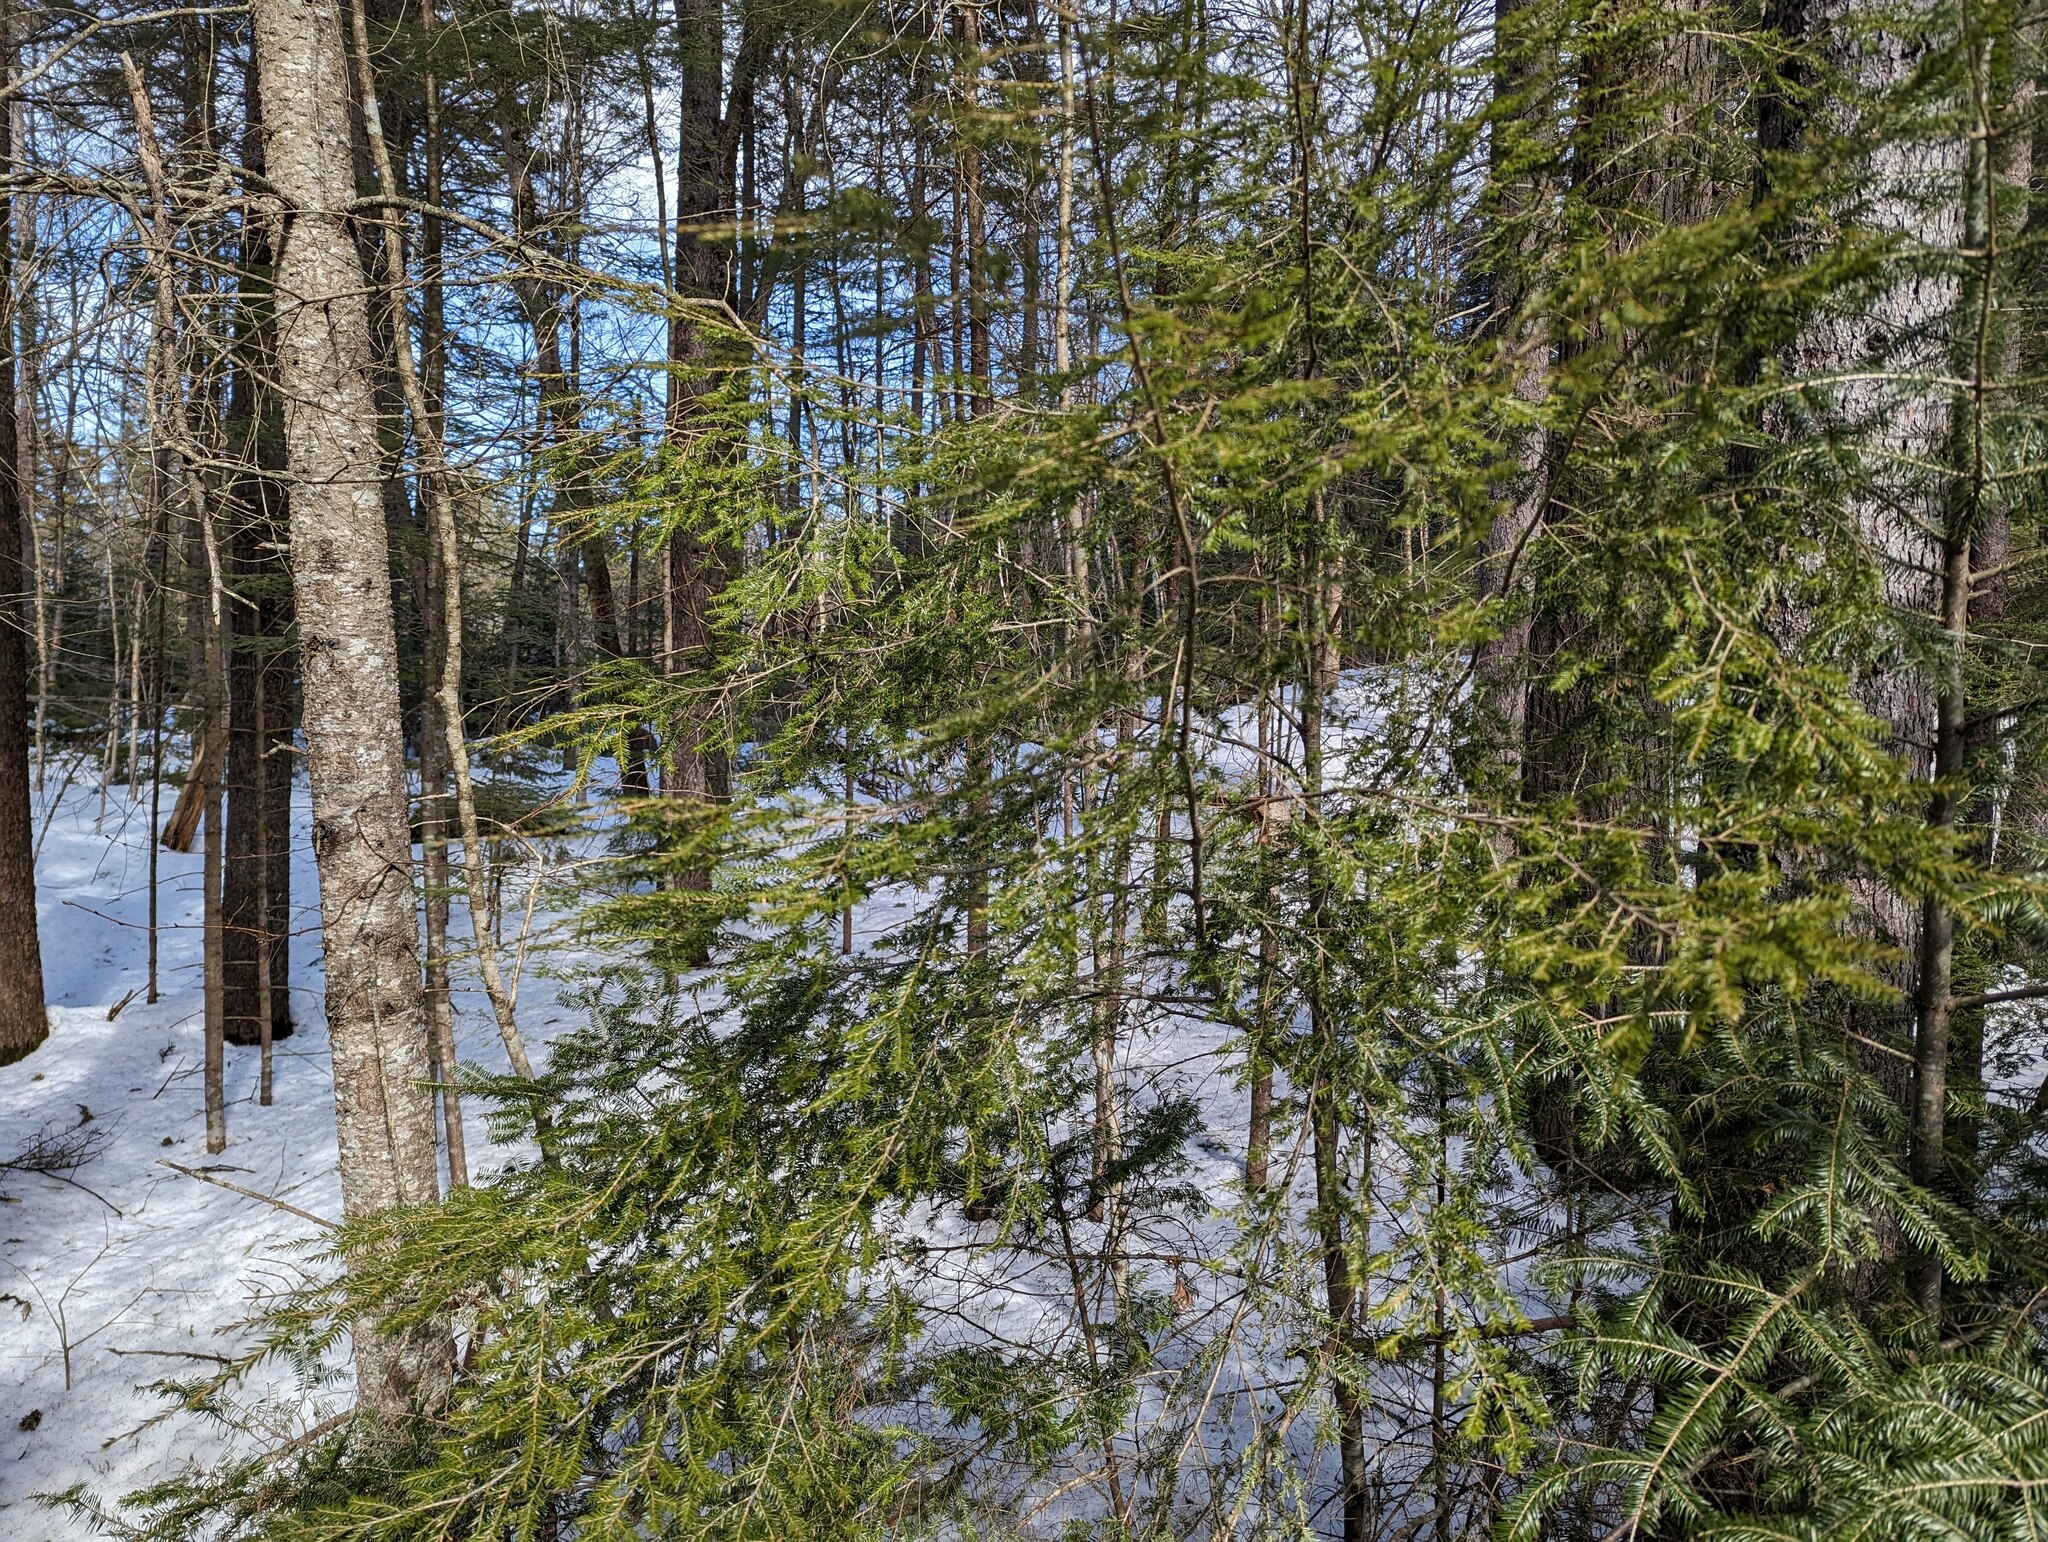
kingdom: Plantae
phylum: Tracheophyta
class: Pinopsida
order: Pinales
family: Pinaceae
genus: Tsuga
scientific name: Tsuga canadensis
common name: Eastern hemlock
